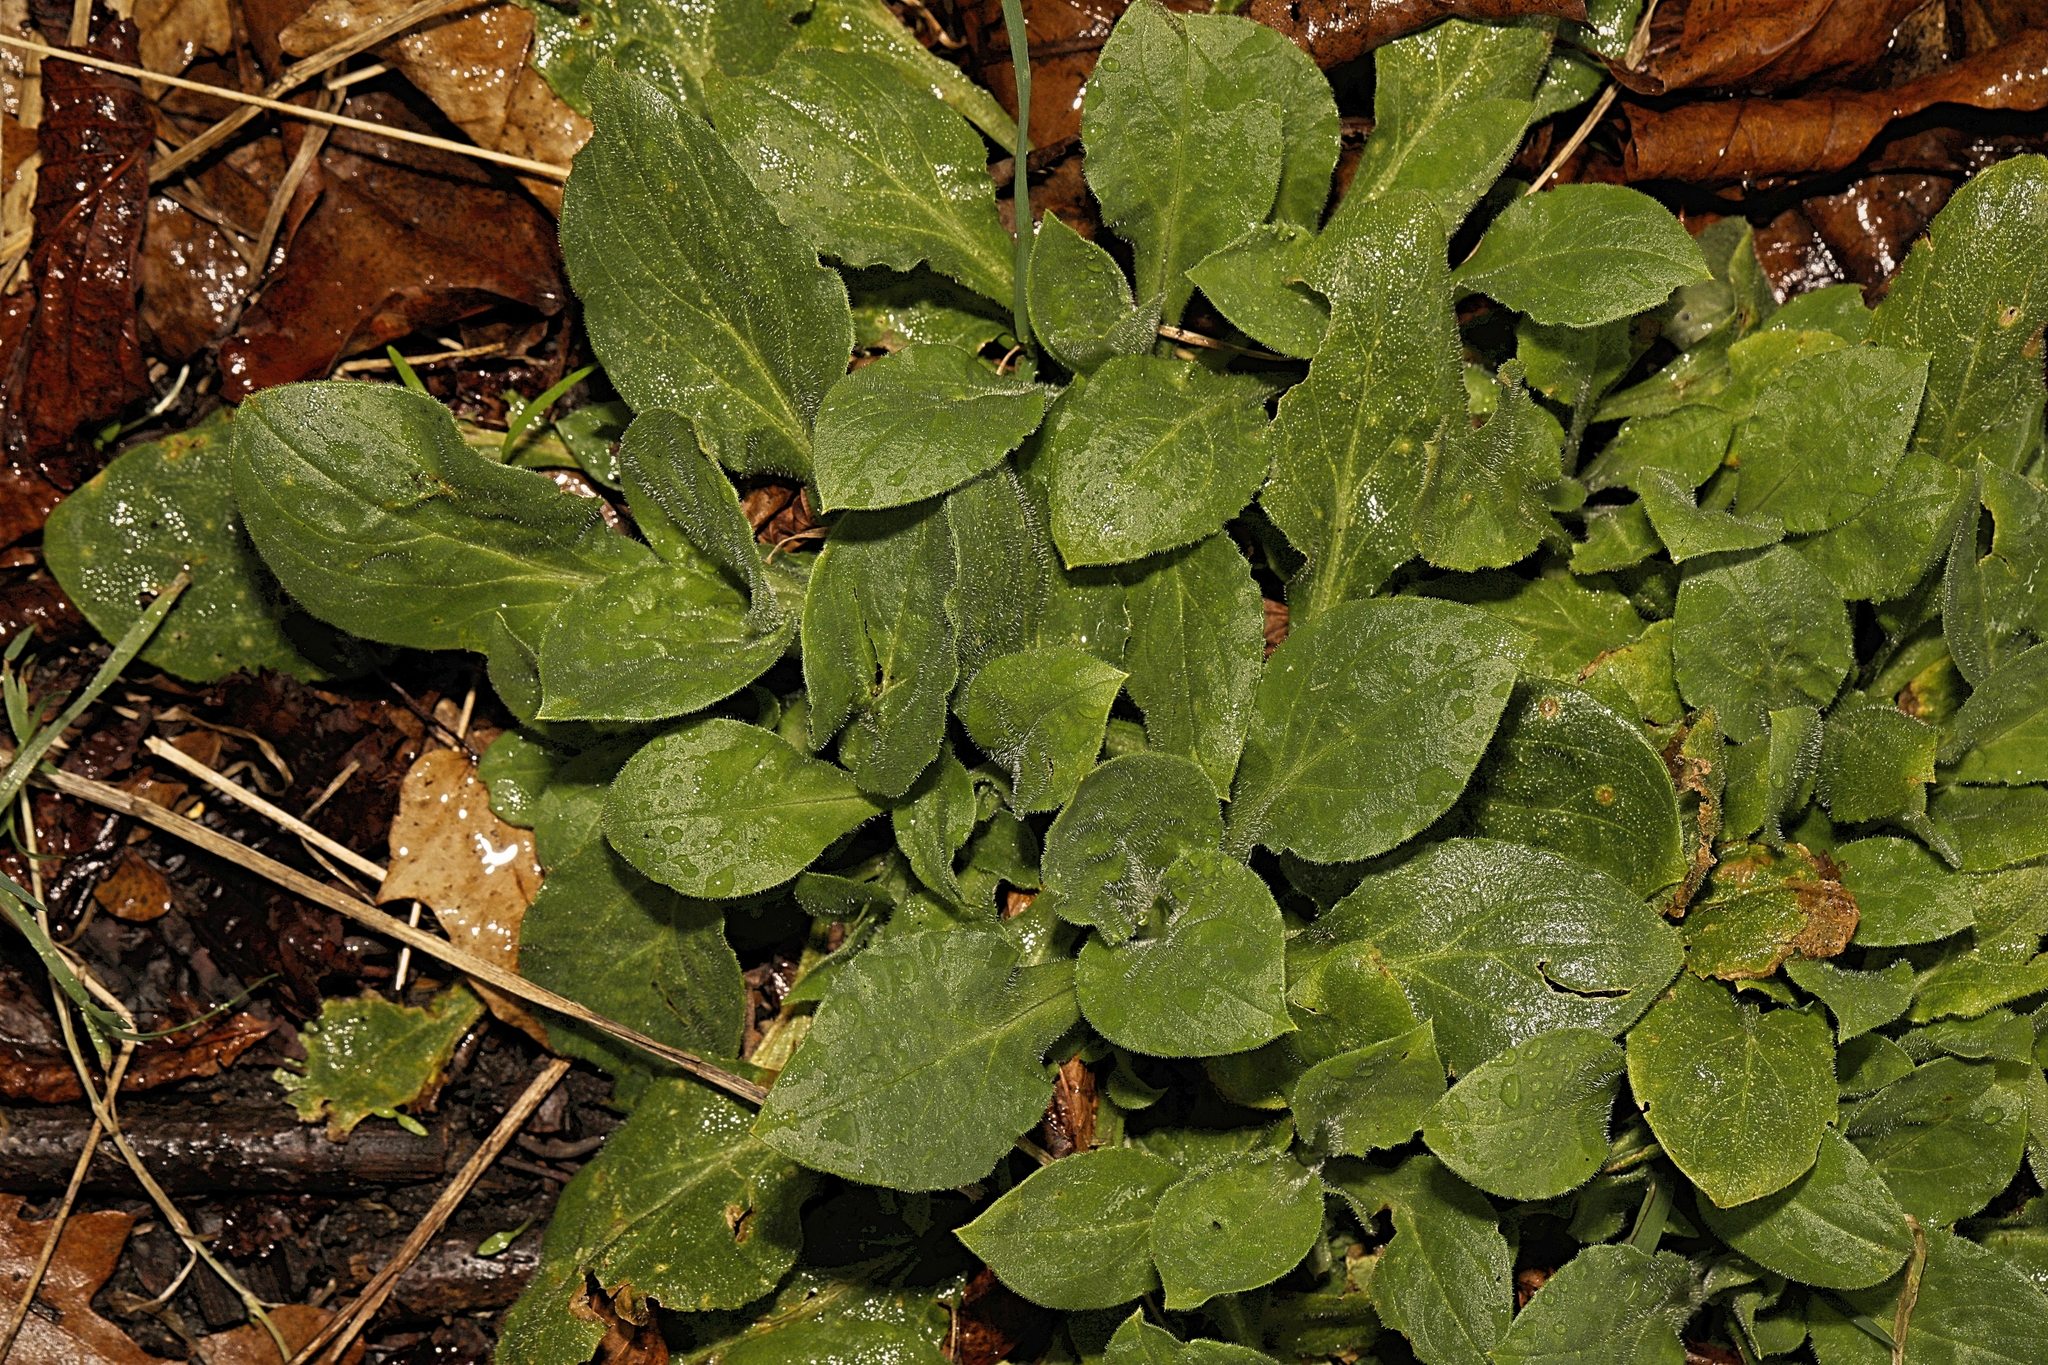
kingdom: Plantae
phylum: Tracheophyta
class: Magnoliopsida
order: Caryophyllales
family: Caryophyllaceae
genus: Silene
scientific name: Silene dioica
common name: Red campion
